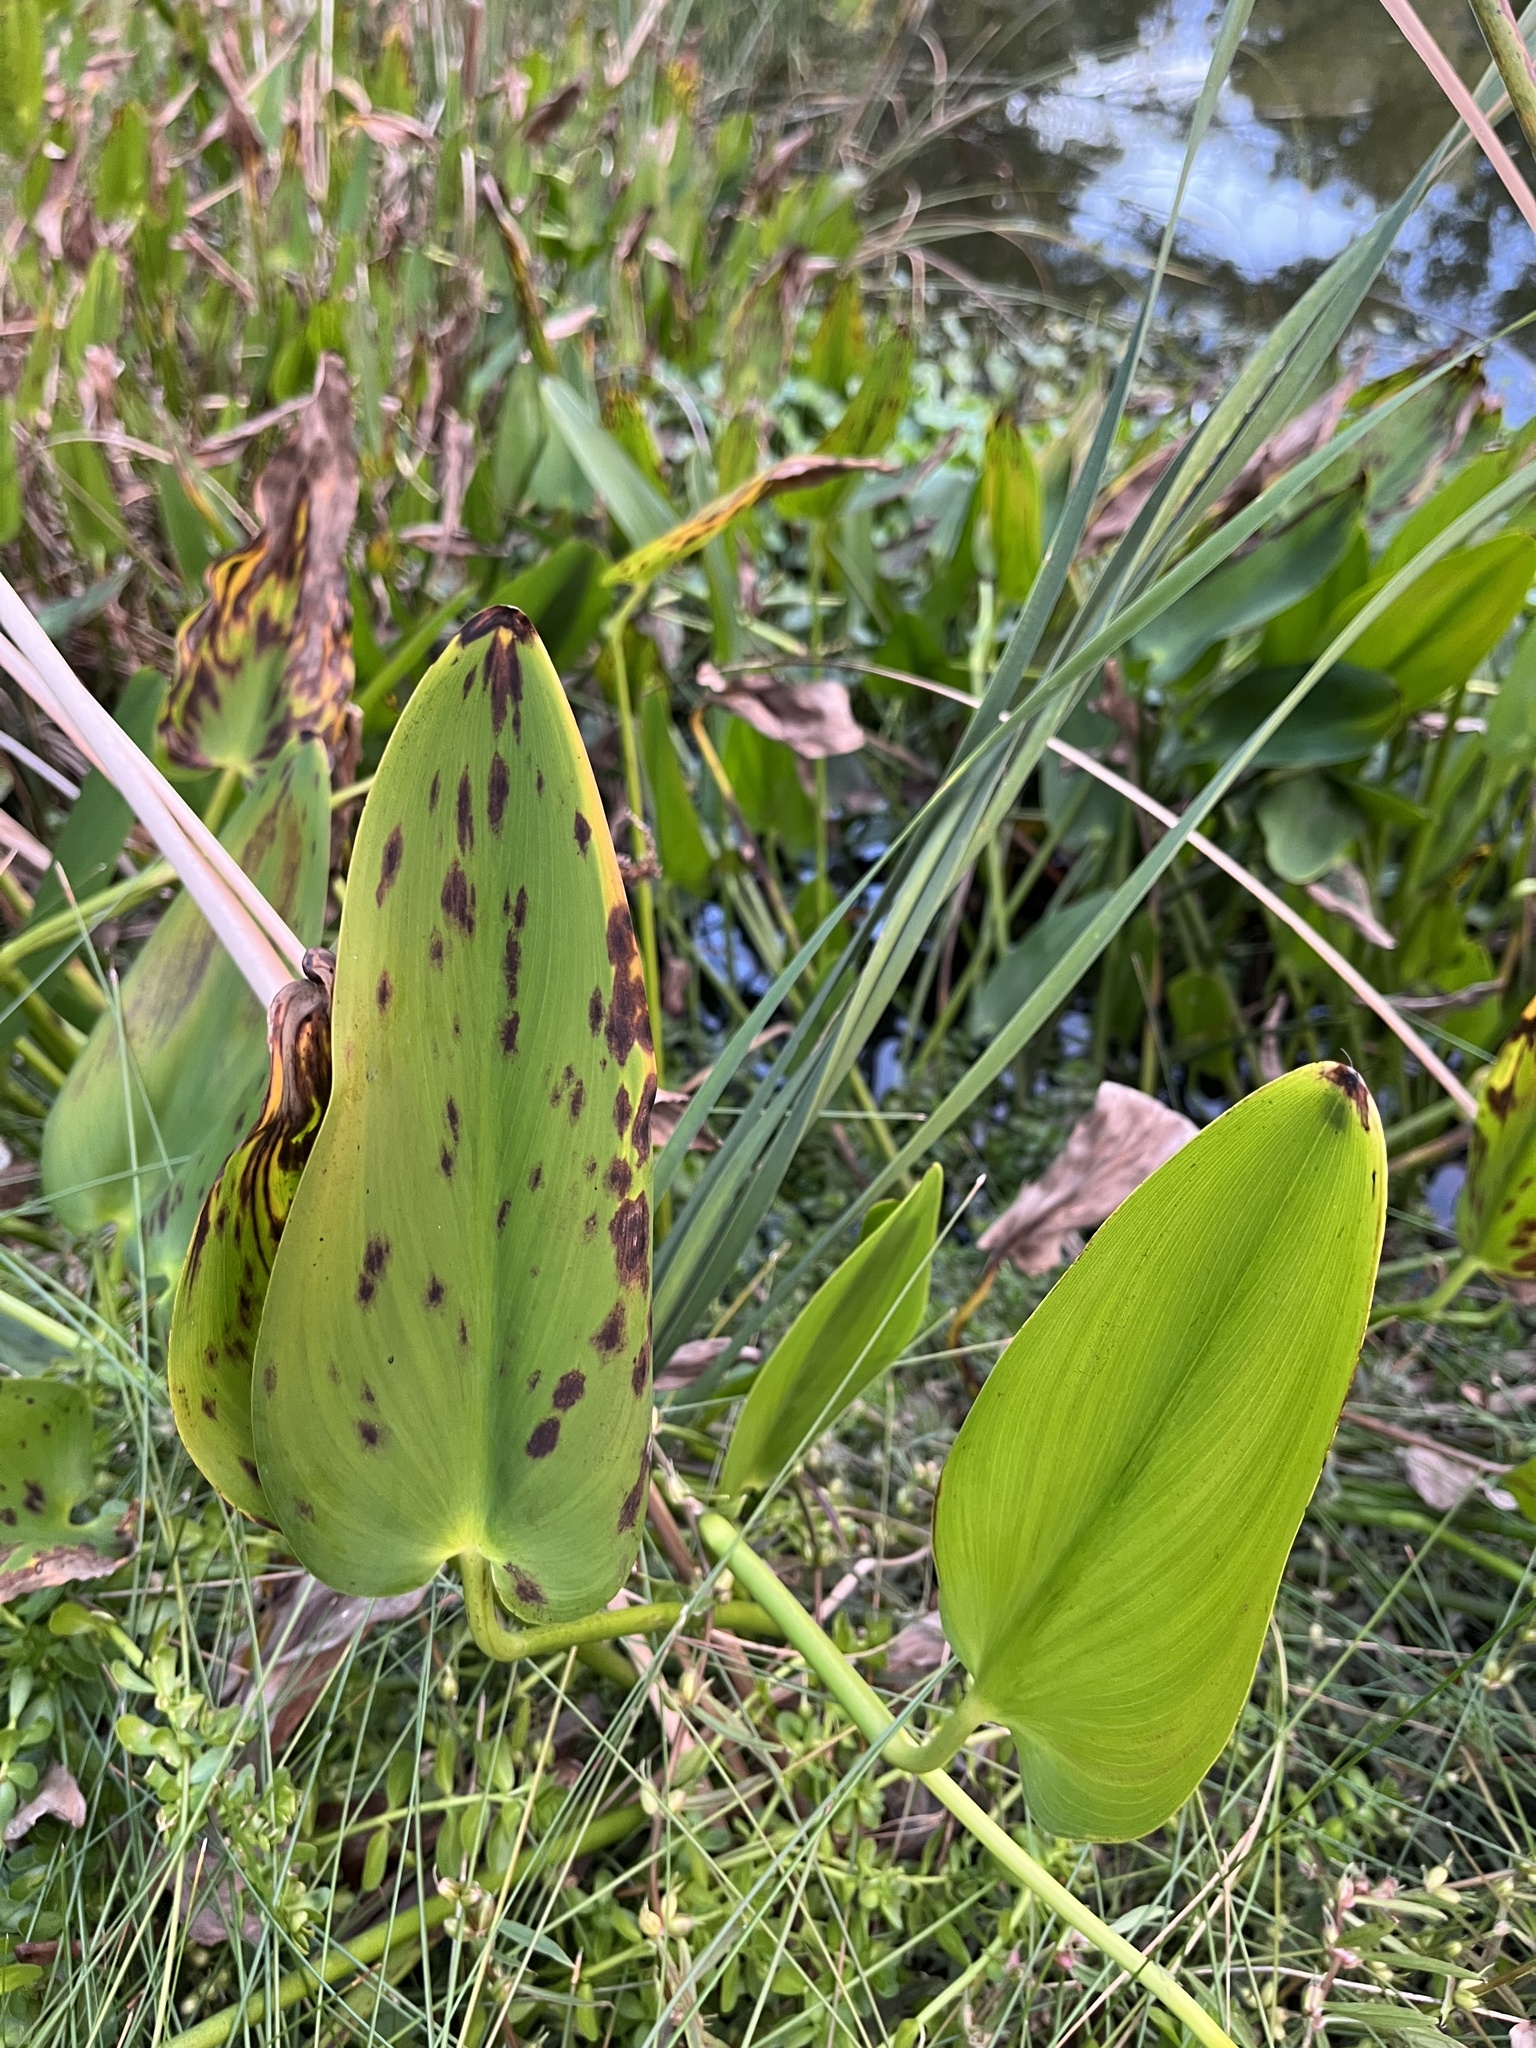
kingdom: Plantae
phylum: Tracheophyta
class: Liliopsida
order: Commelinales
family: Pontederiaceae
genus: Pontederia
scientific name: Pontederia cordata
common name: Pickerelweed
